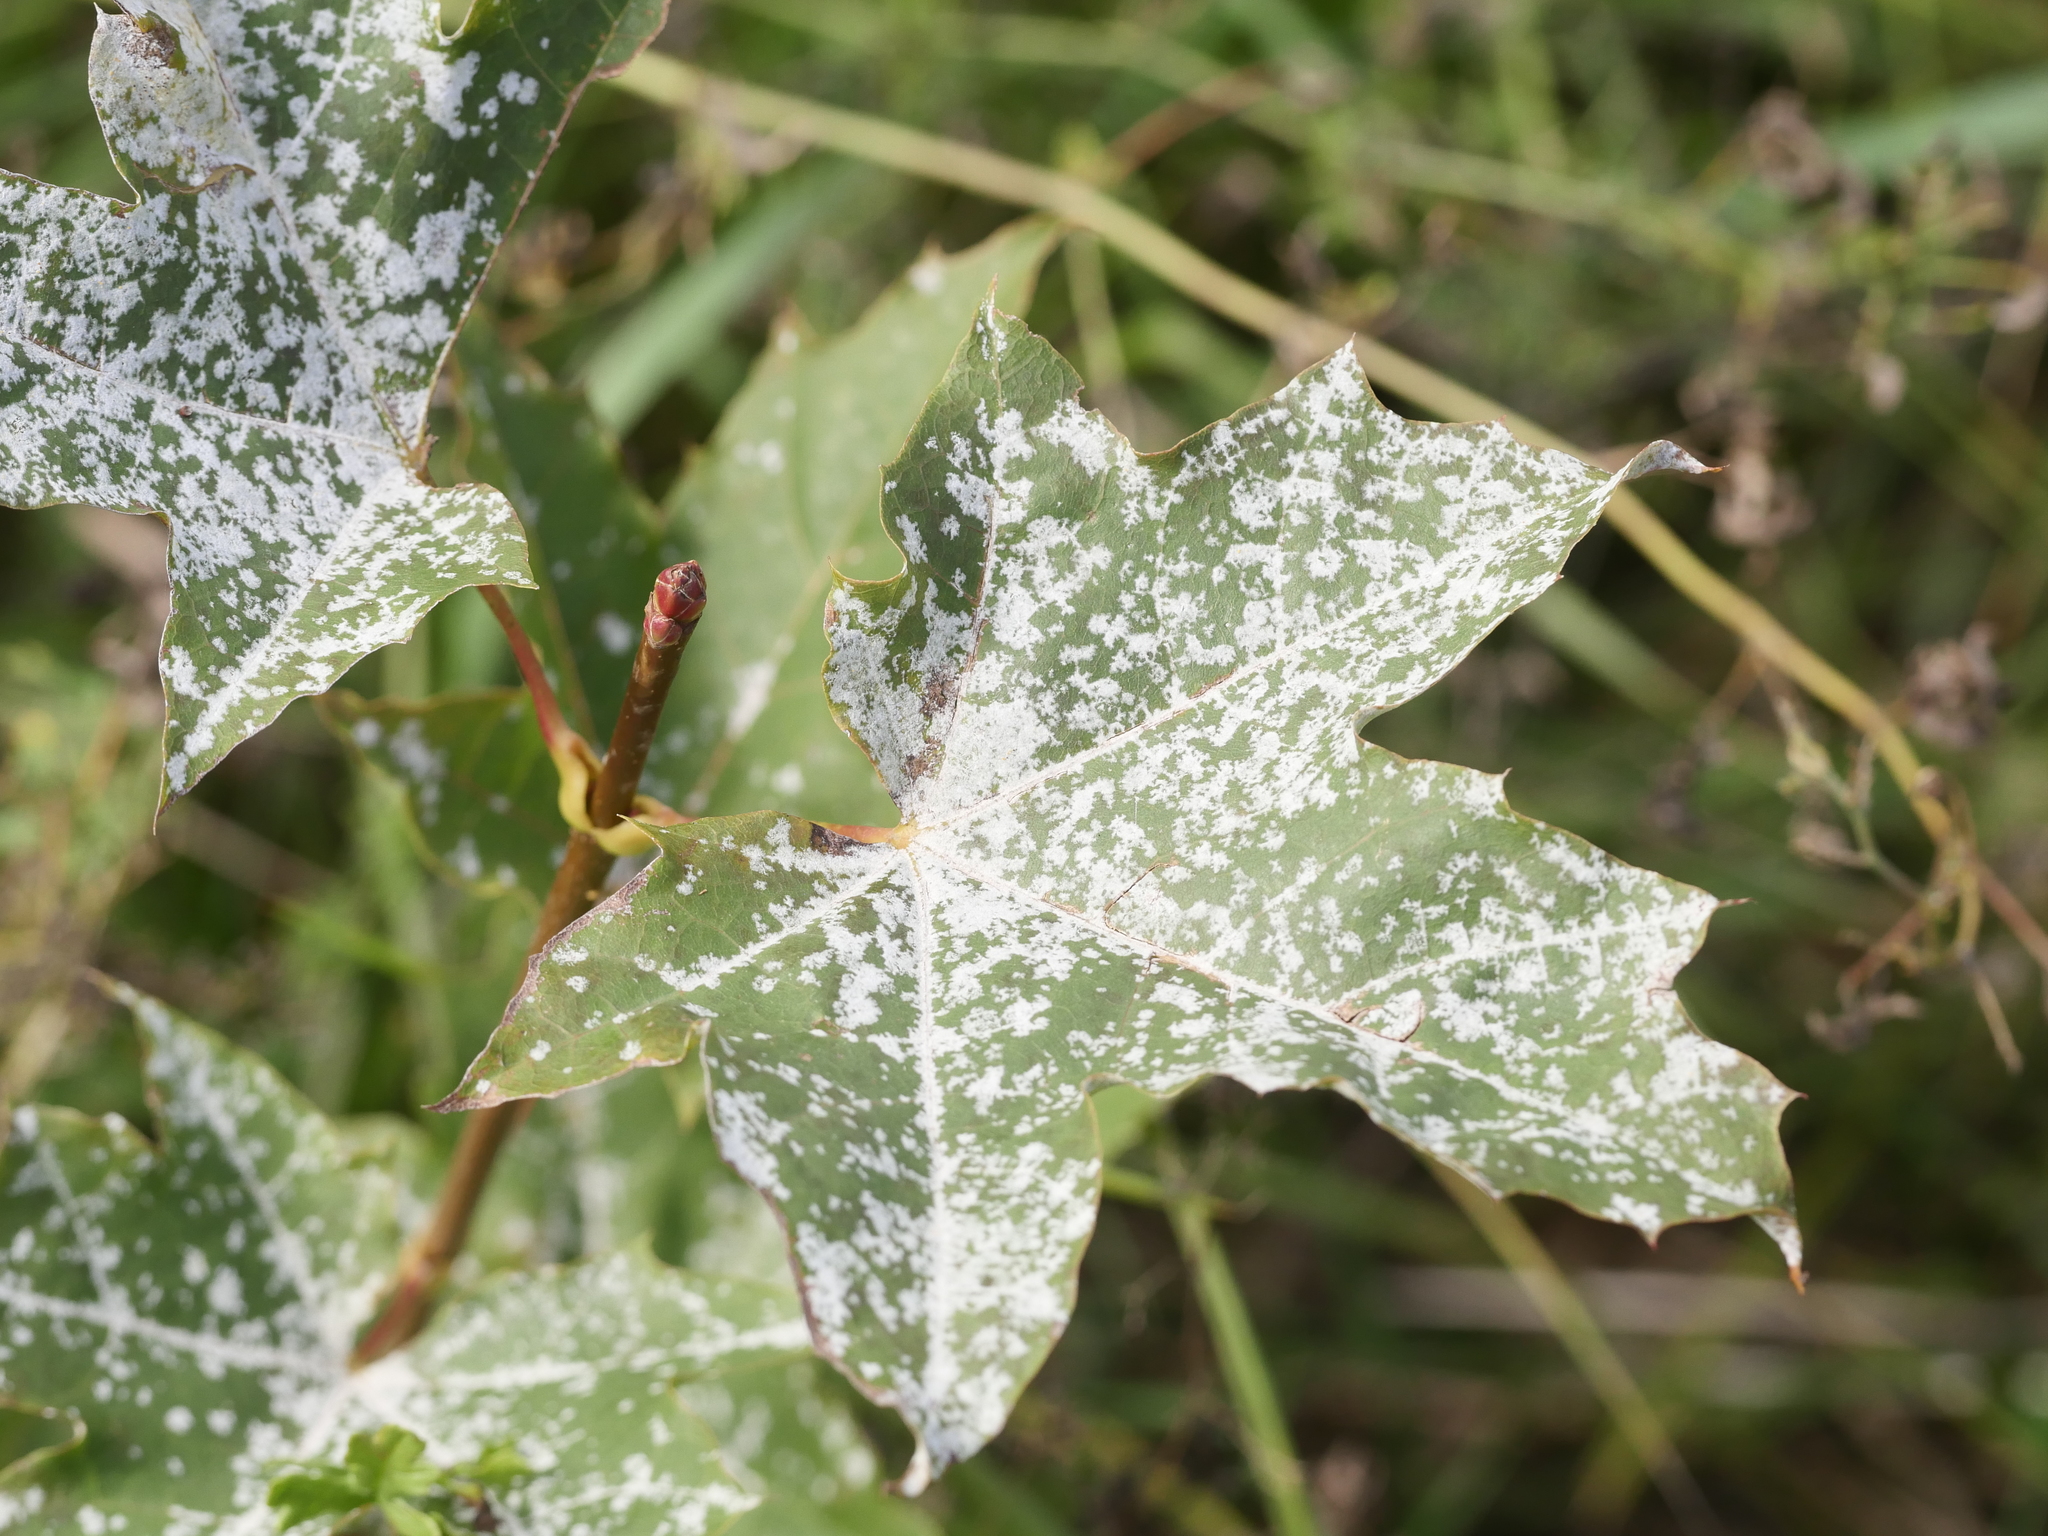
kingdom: Plantae
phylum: Tracheophyta
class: Magnoliopsida
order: Sapindales
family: Sapindaceae
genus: Acer
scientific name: Acer platanoides
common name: Norway maple
